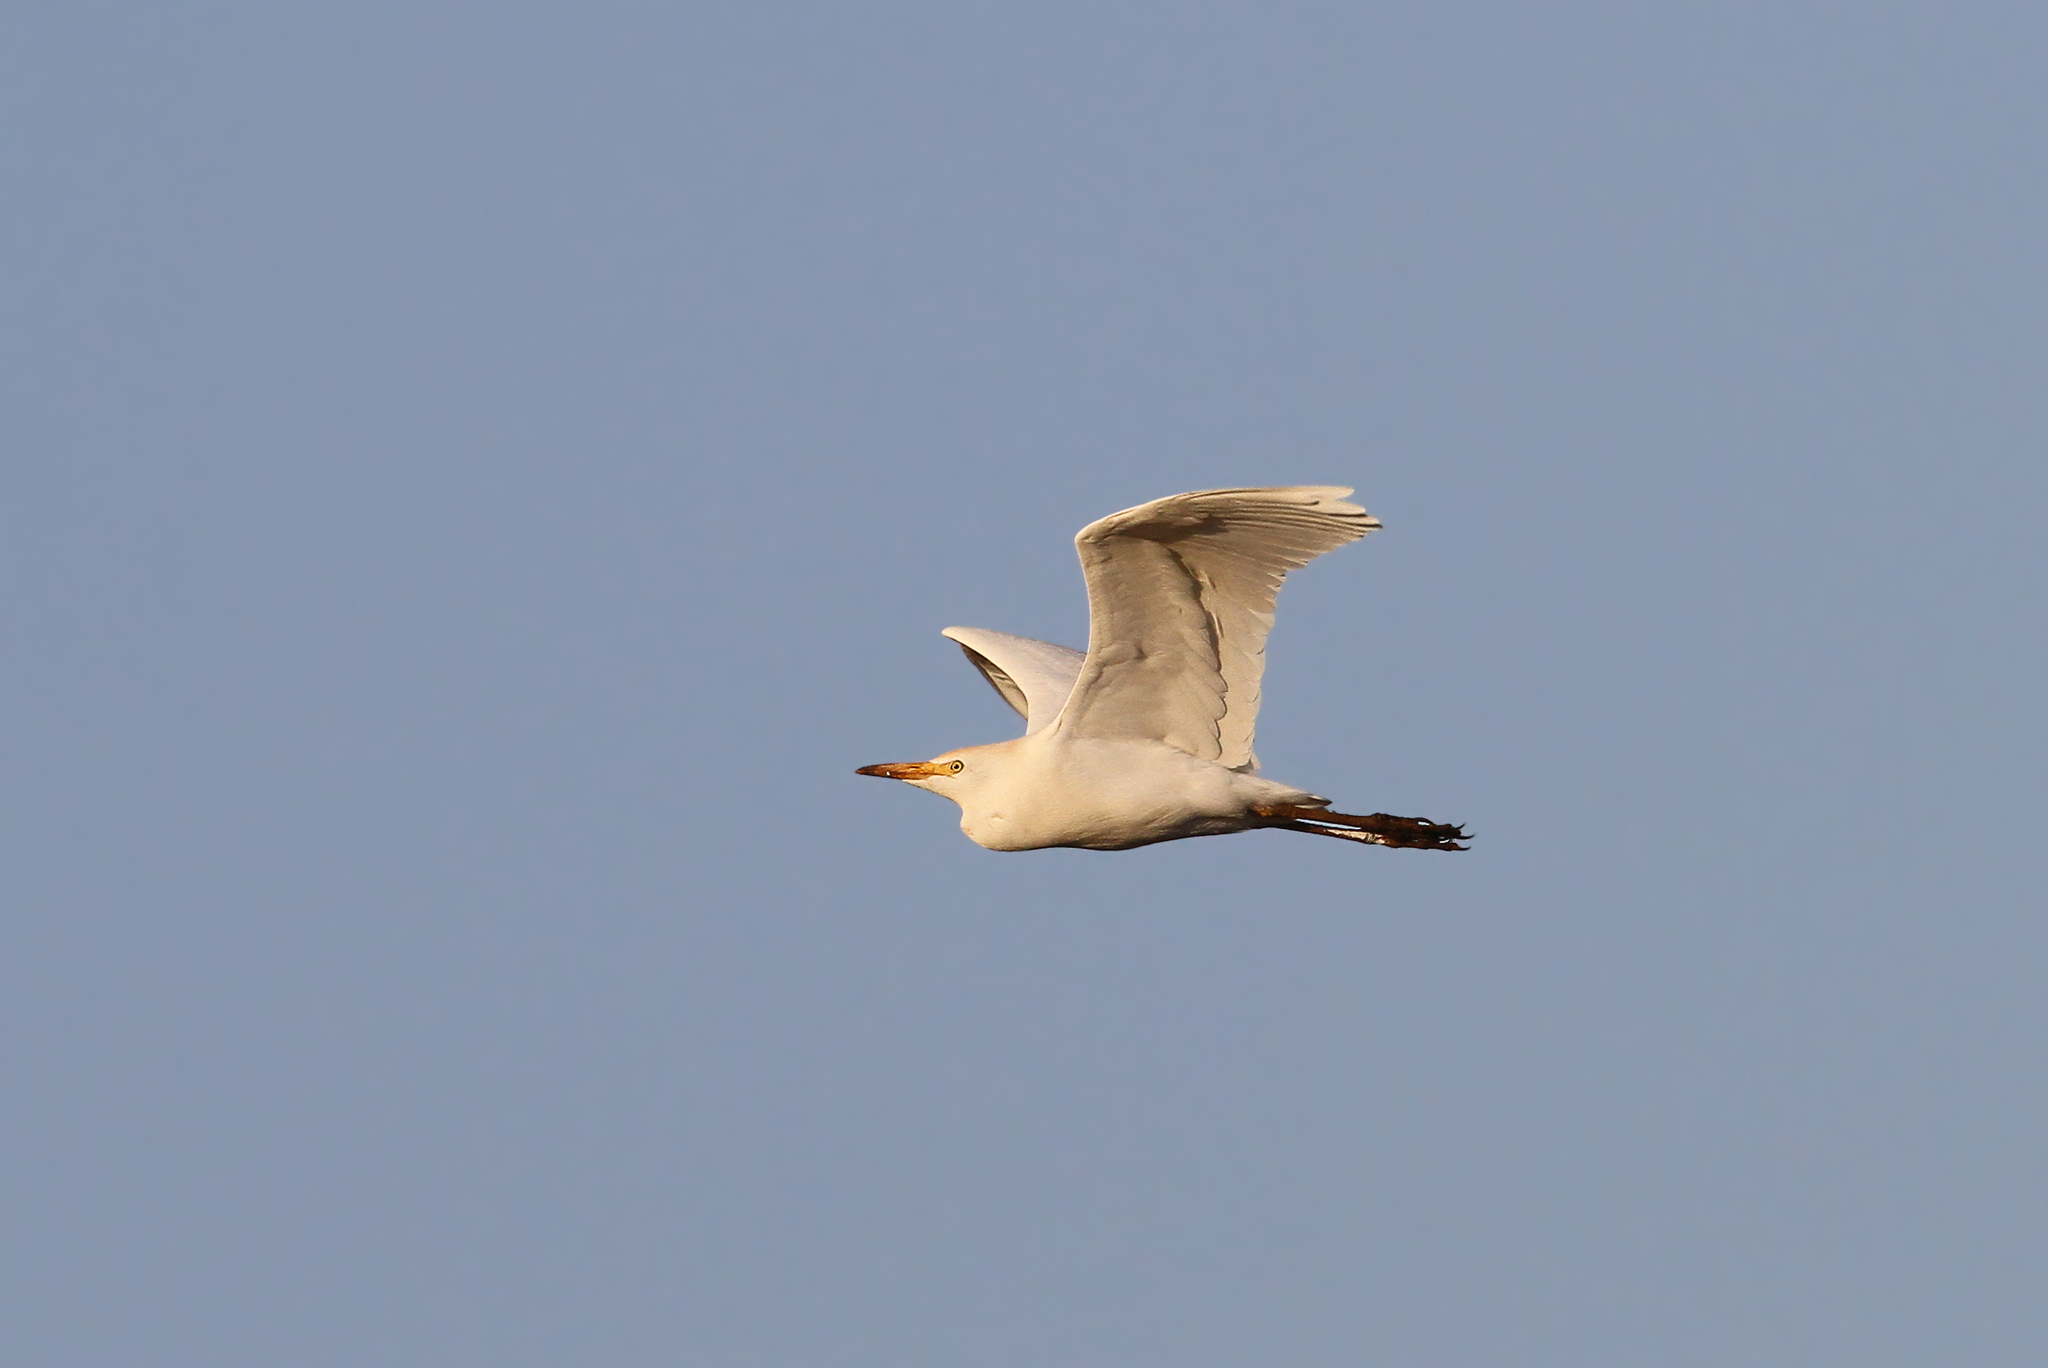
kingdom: Animalia
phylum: Chordata
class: Aves
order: Pelecaniformes
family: Ardeidae
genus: Bubulcus
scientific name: Bubulcus ibis
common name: Cattle egret
